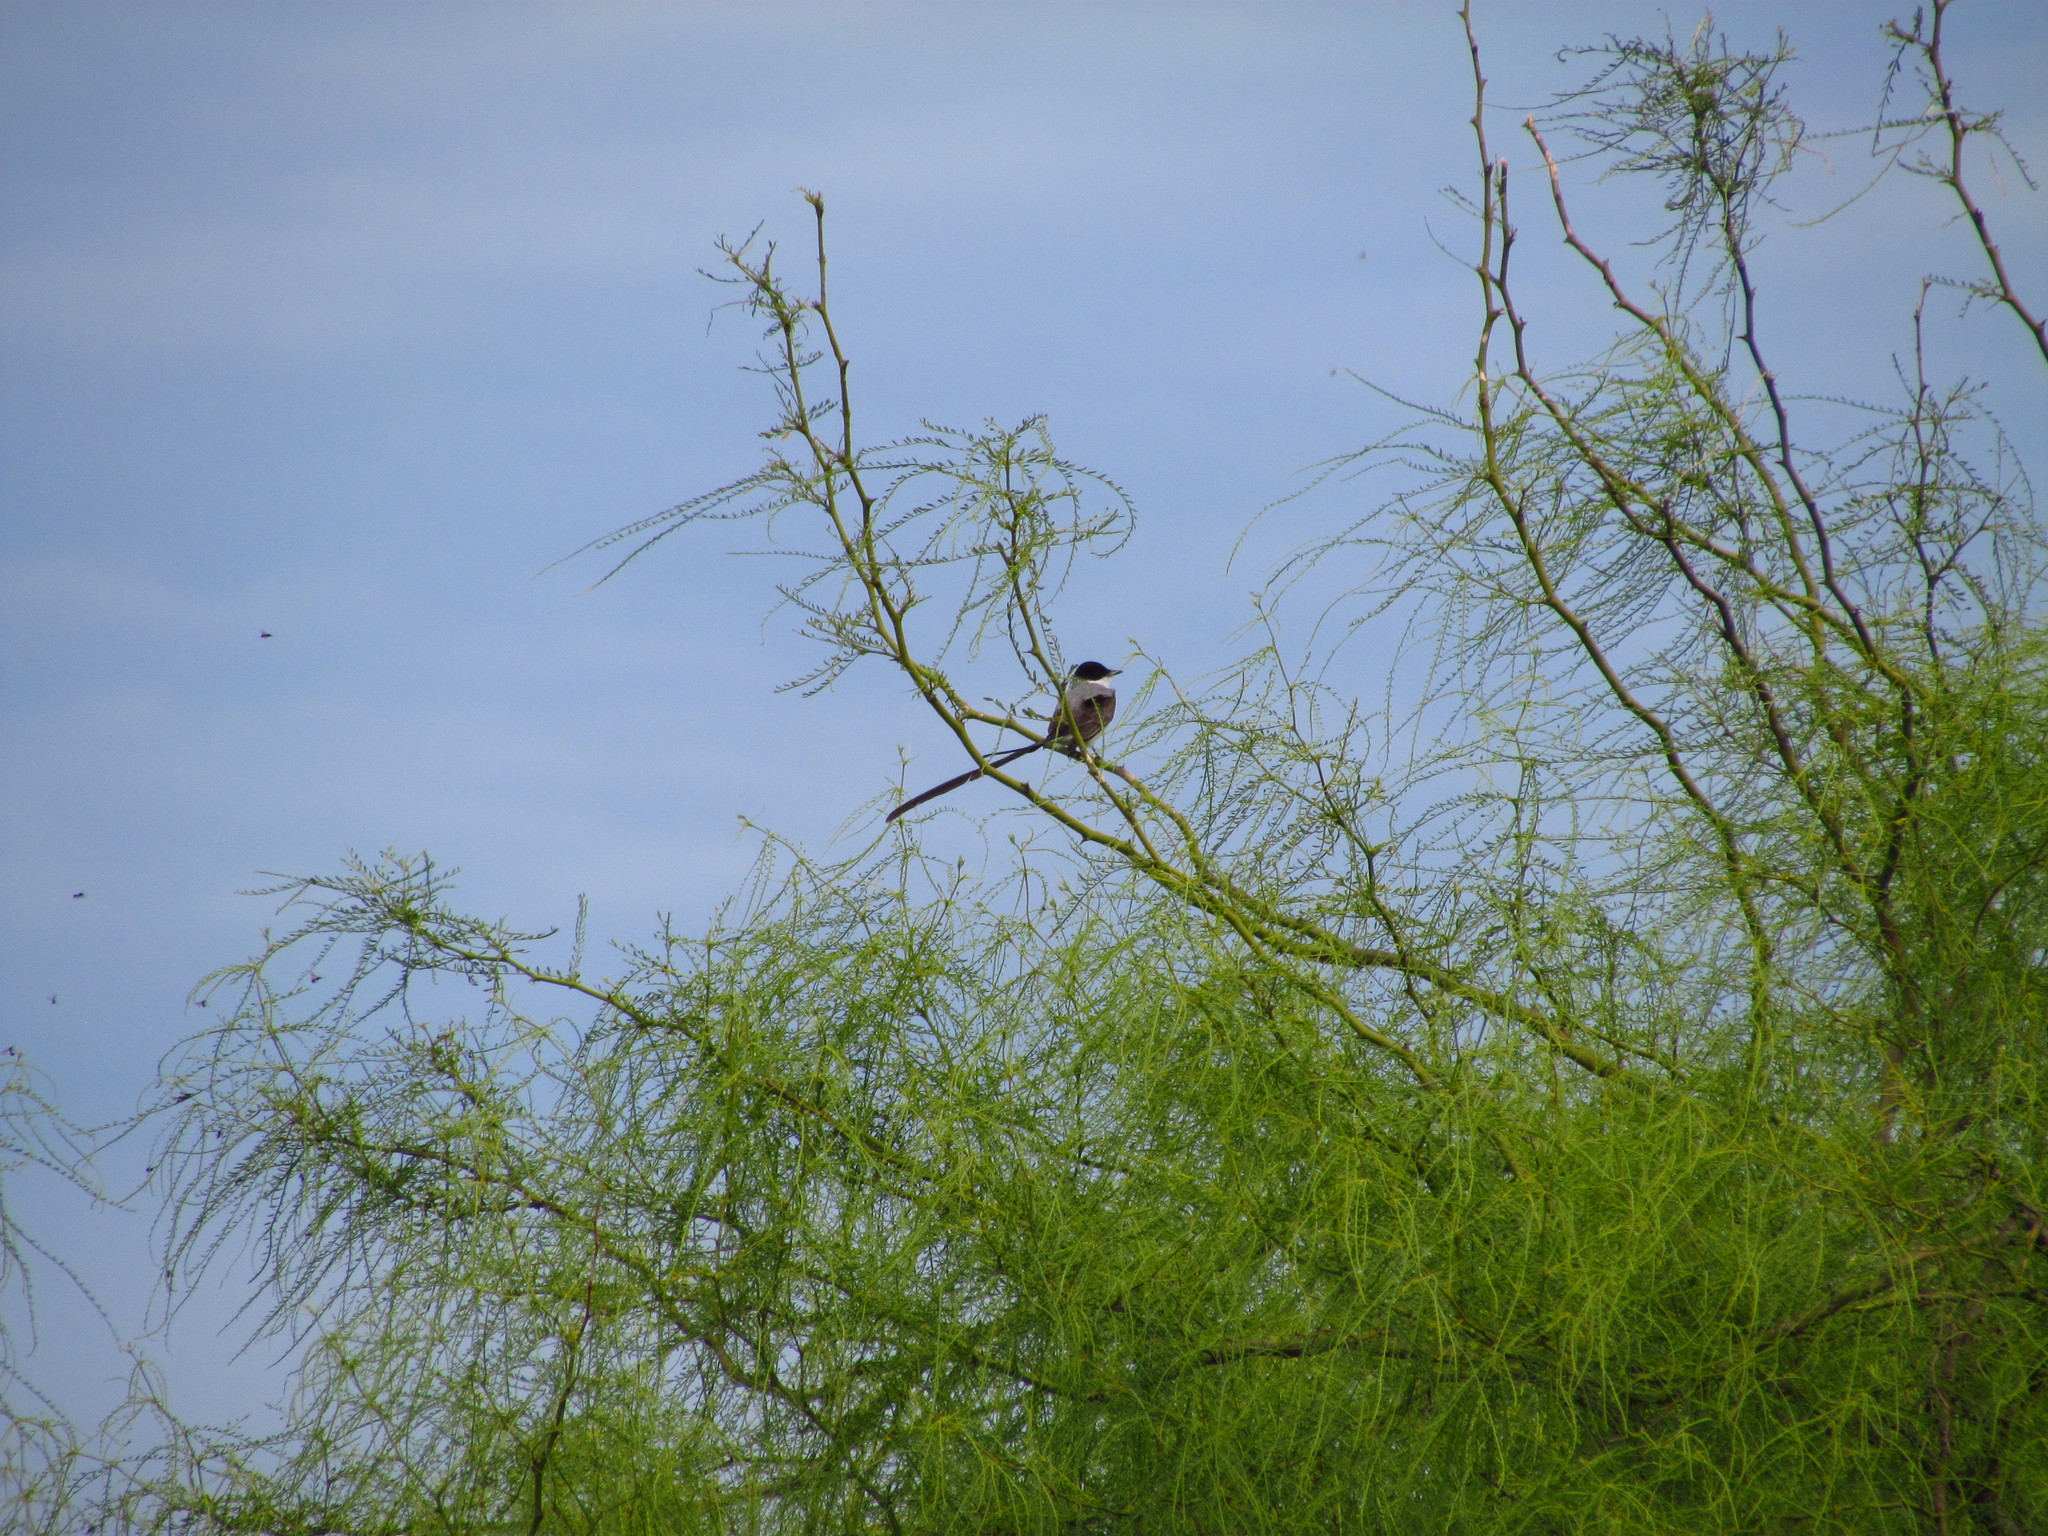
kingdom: Animalia
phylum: Chordata
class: Aves
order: Passeriformes
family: Tyrannidae
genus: Tyrannus
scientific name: Tyrannus savana
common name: Fork-tailed flycatcher
